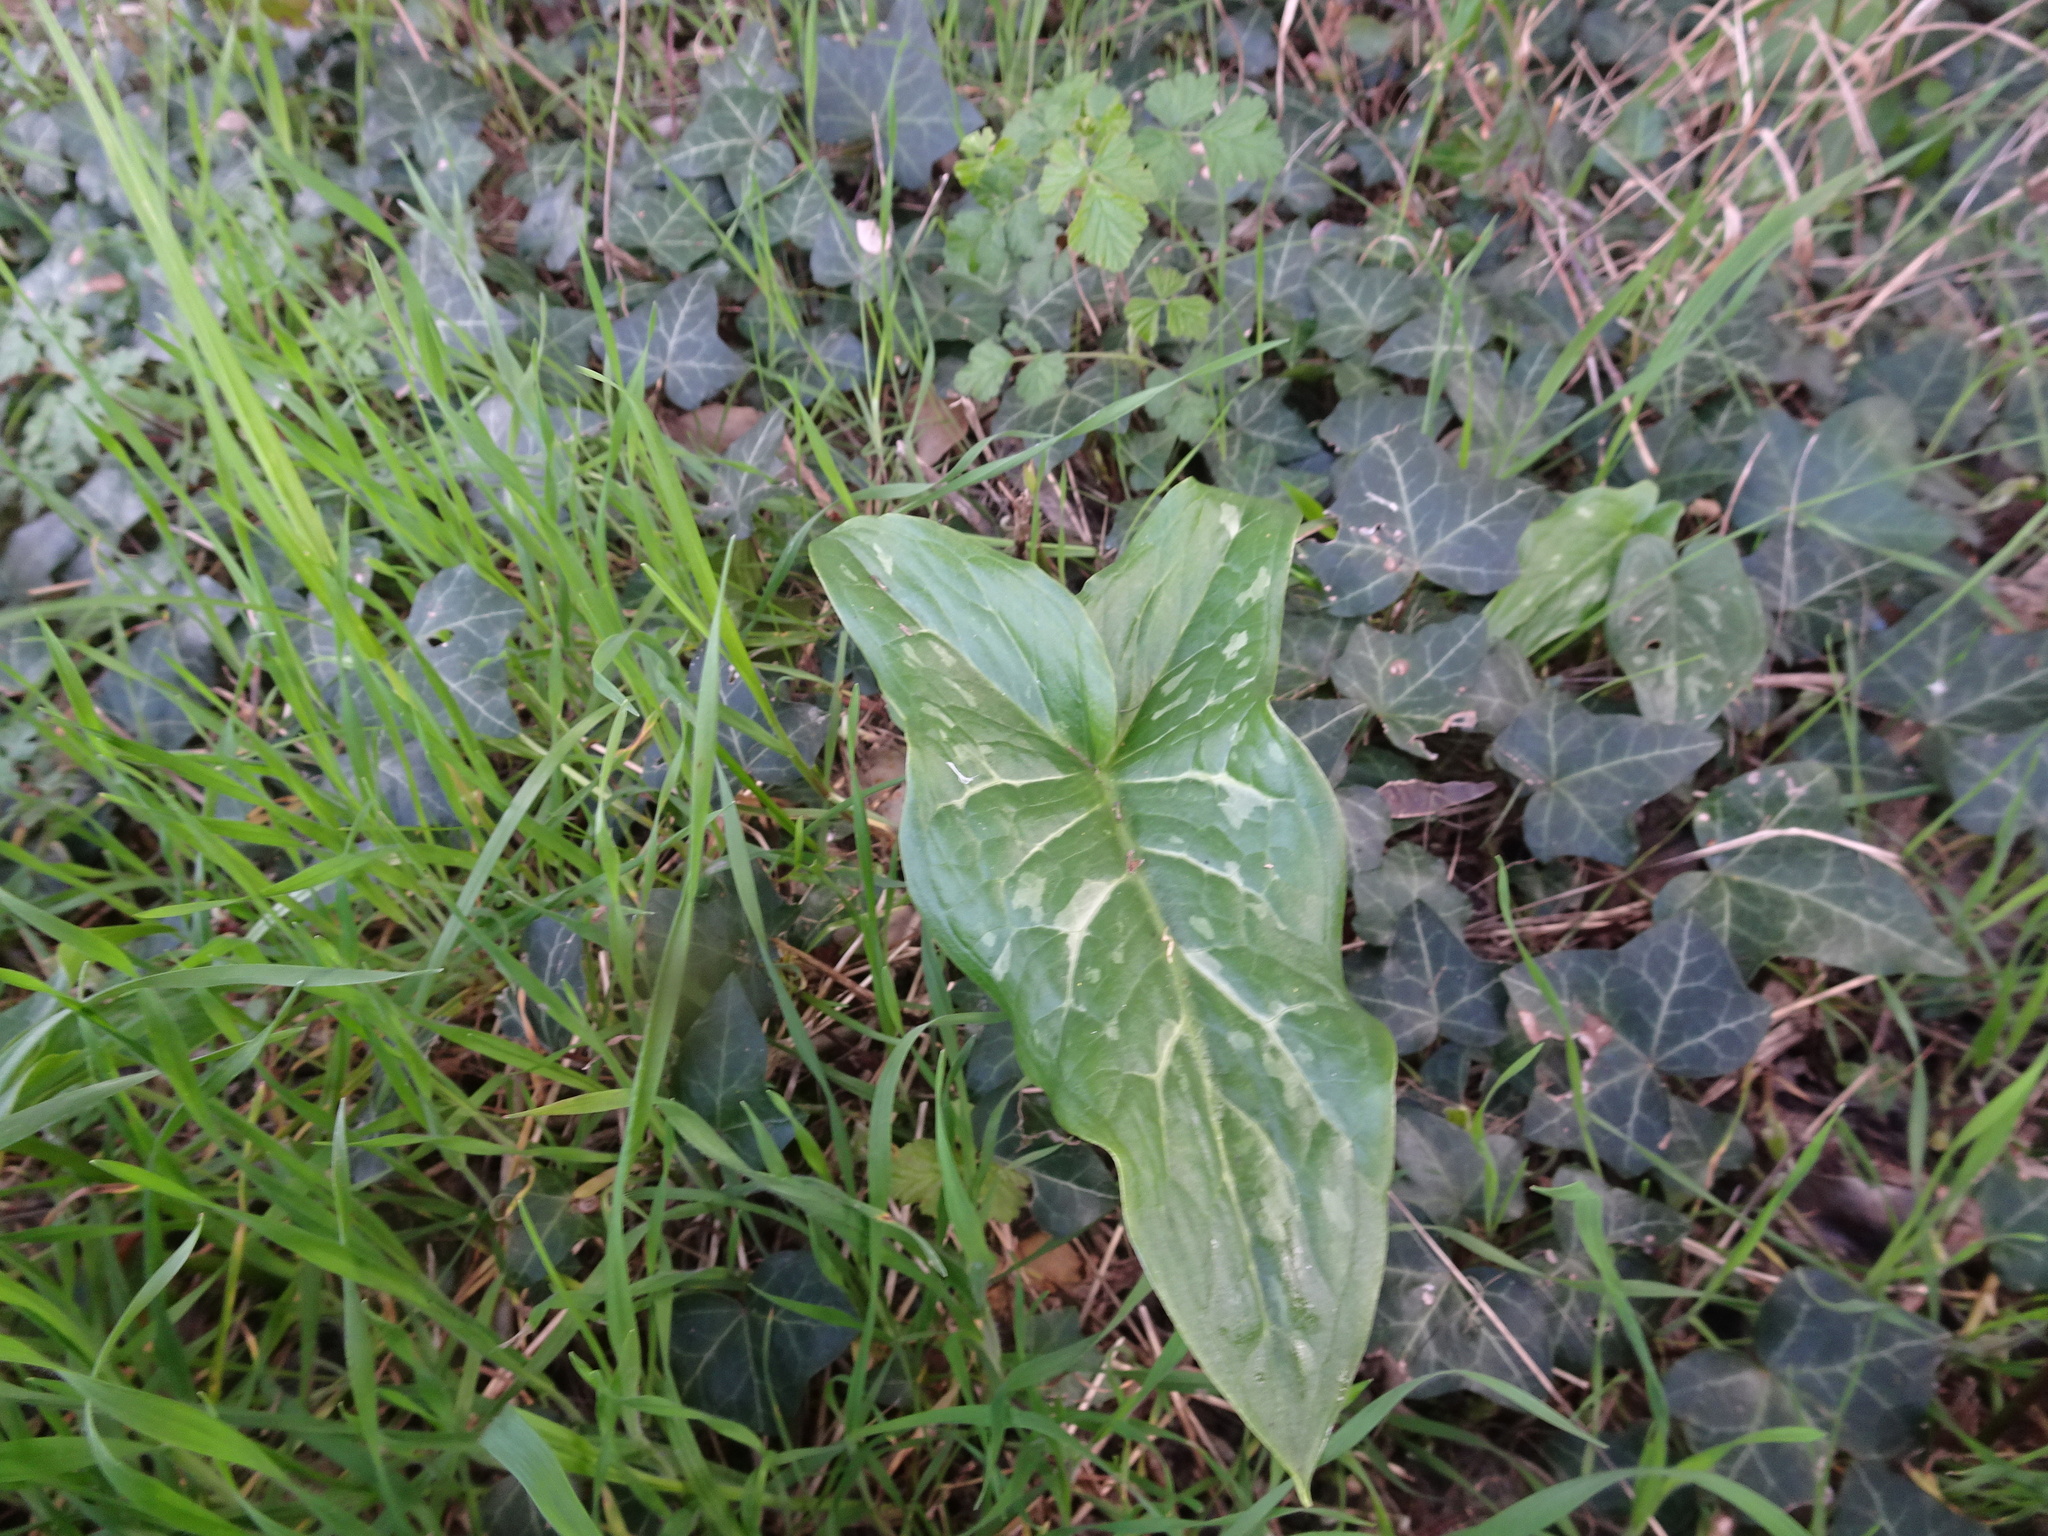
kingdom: Plantae
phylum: Tracheophyta
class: Liliopsida
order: Alismatales
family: Araceae
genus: Arum
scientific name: Arum italicum
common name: Italian lords-and-ladies
